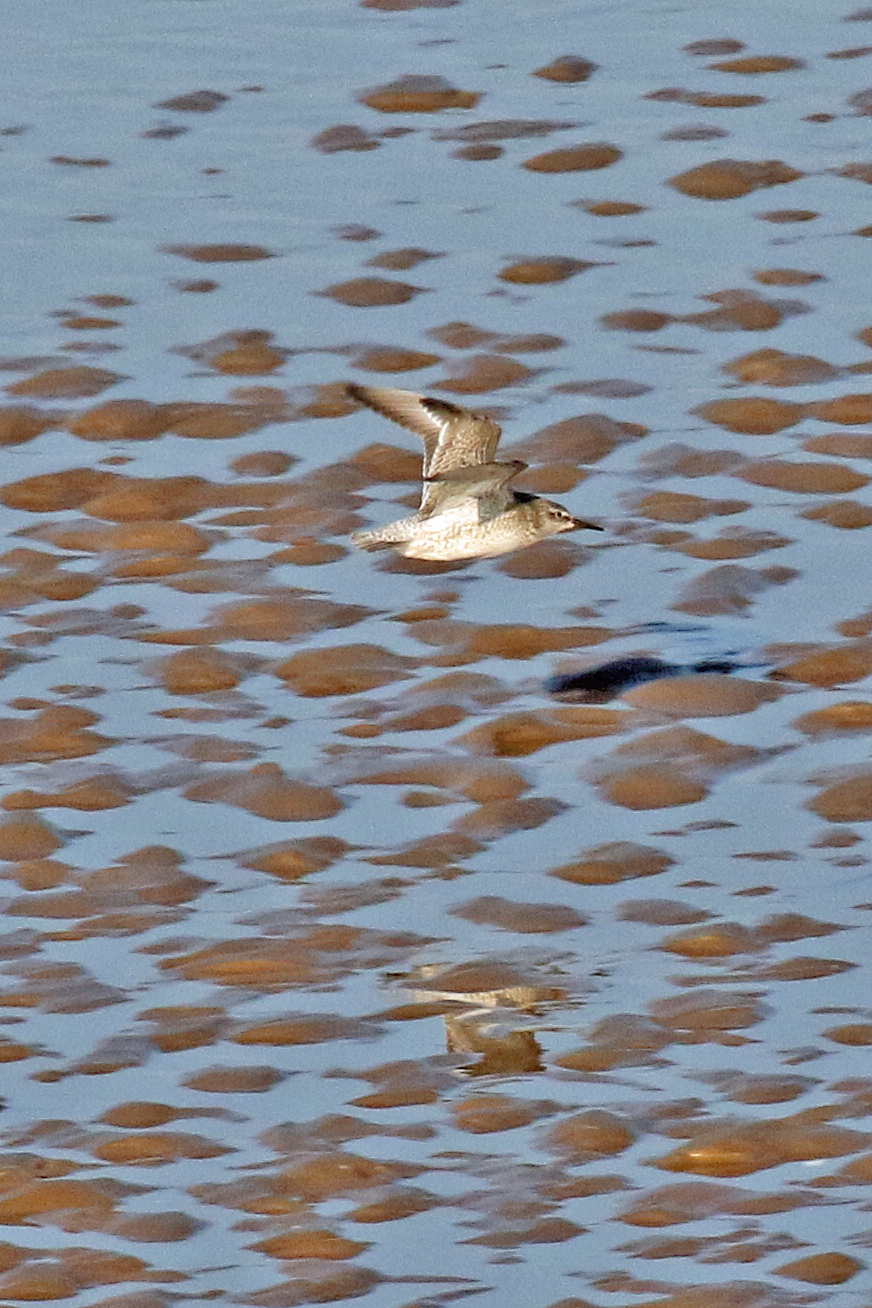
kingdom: Animalia
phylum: Chordata
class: Aves
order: Charadriiformes
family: Scolopacidae
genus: Calidris
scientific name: Calidris canutus
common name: Red knot
